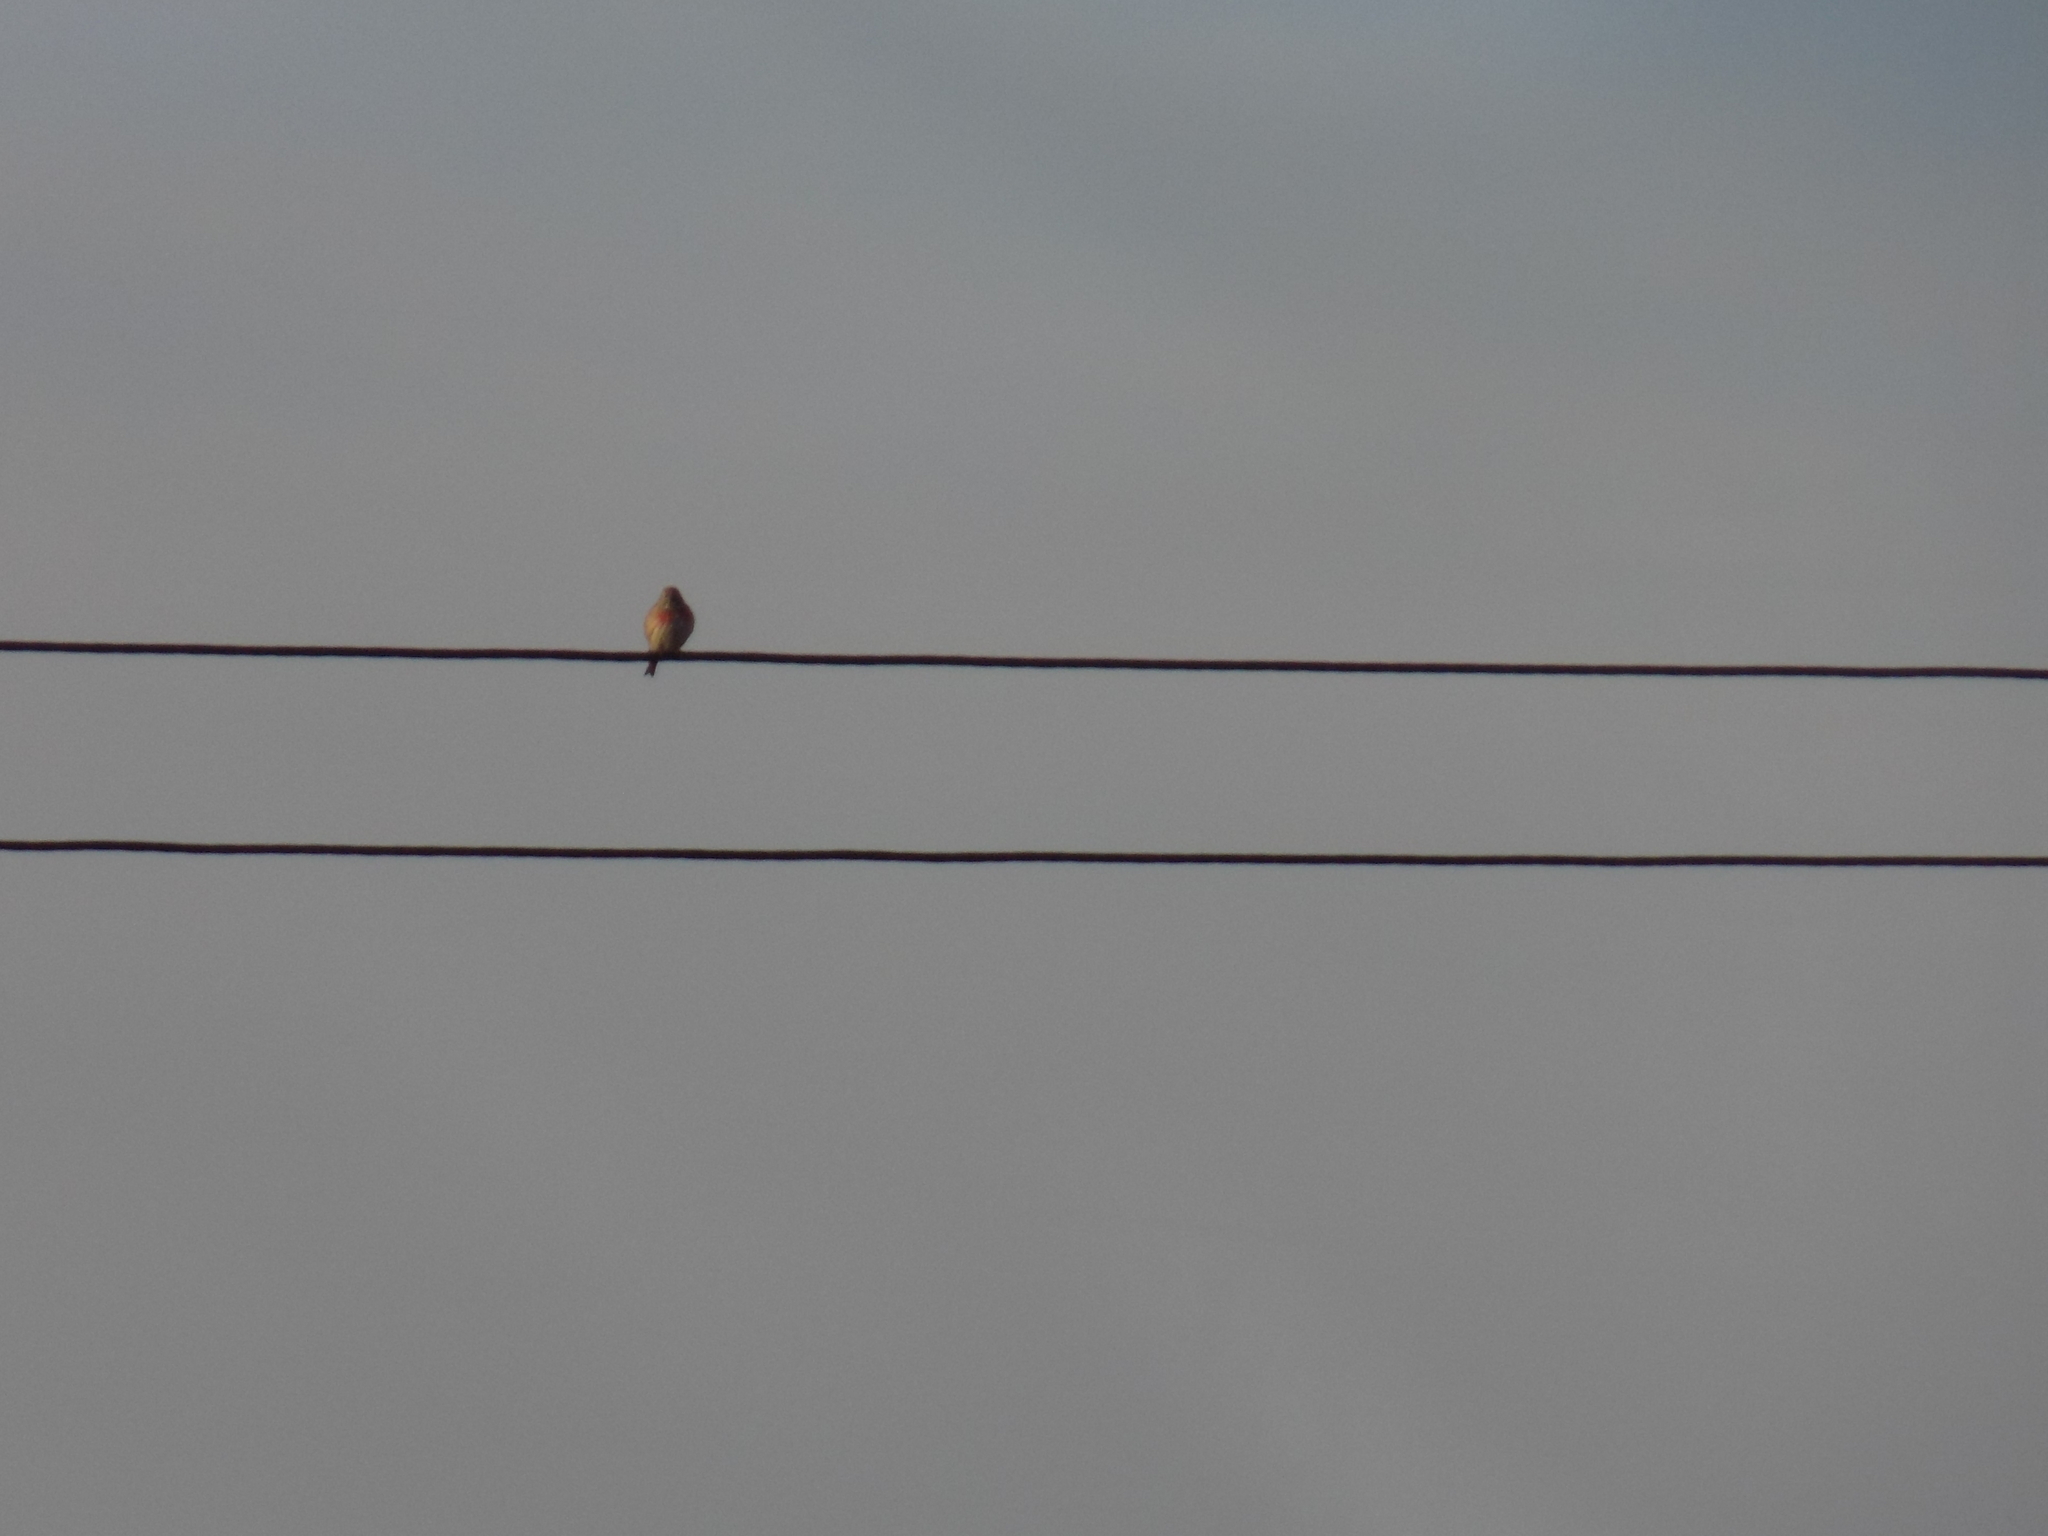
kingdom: Animalia
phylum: Chordata
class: Aves
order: Passeriformes
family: Fringillidae
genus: Linaria
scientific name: Linaria cannabina
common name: Common linnet
